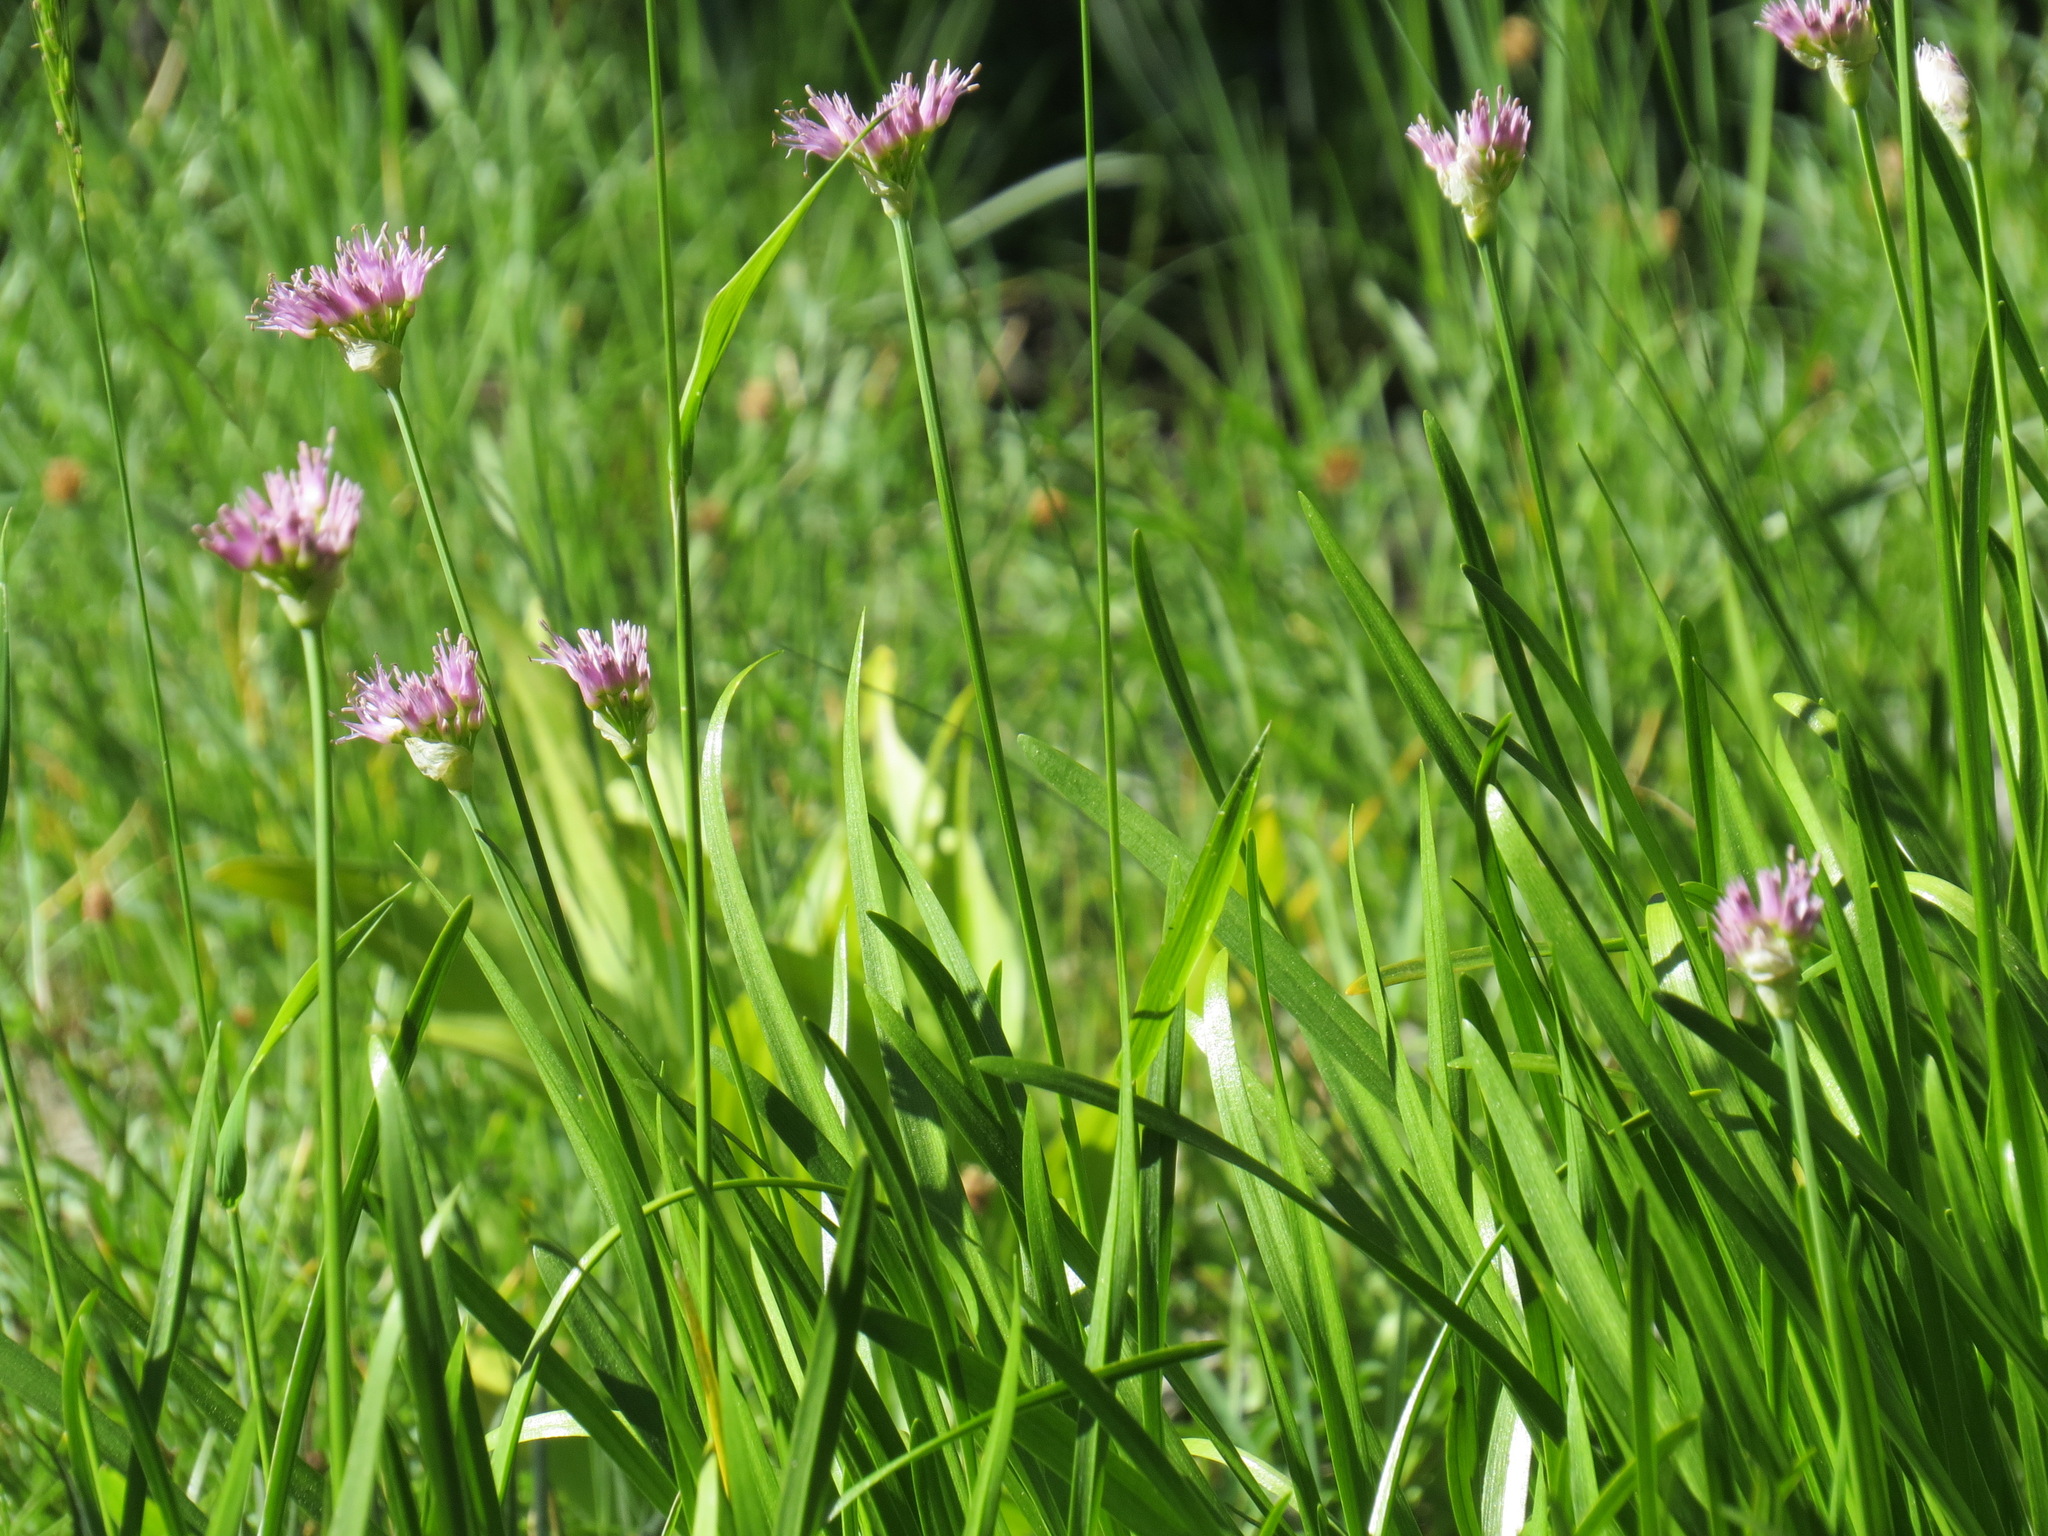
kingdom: Plantae
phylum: Tracheophyta
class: Liliopsida
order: Asparagales
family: Amaryllidaceae
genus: Allium
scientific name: Allium validum
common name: Pacific mountain onion
